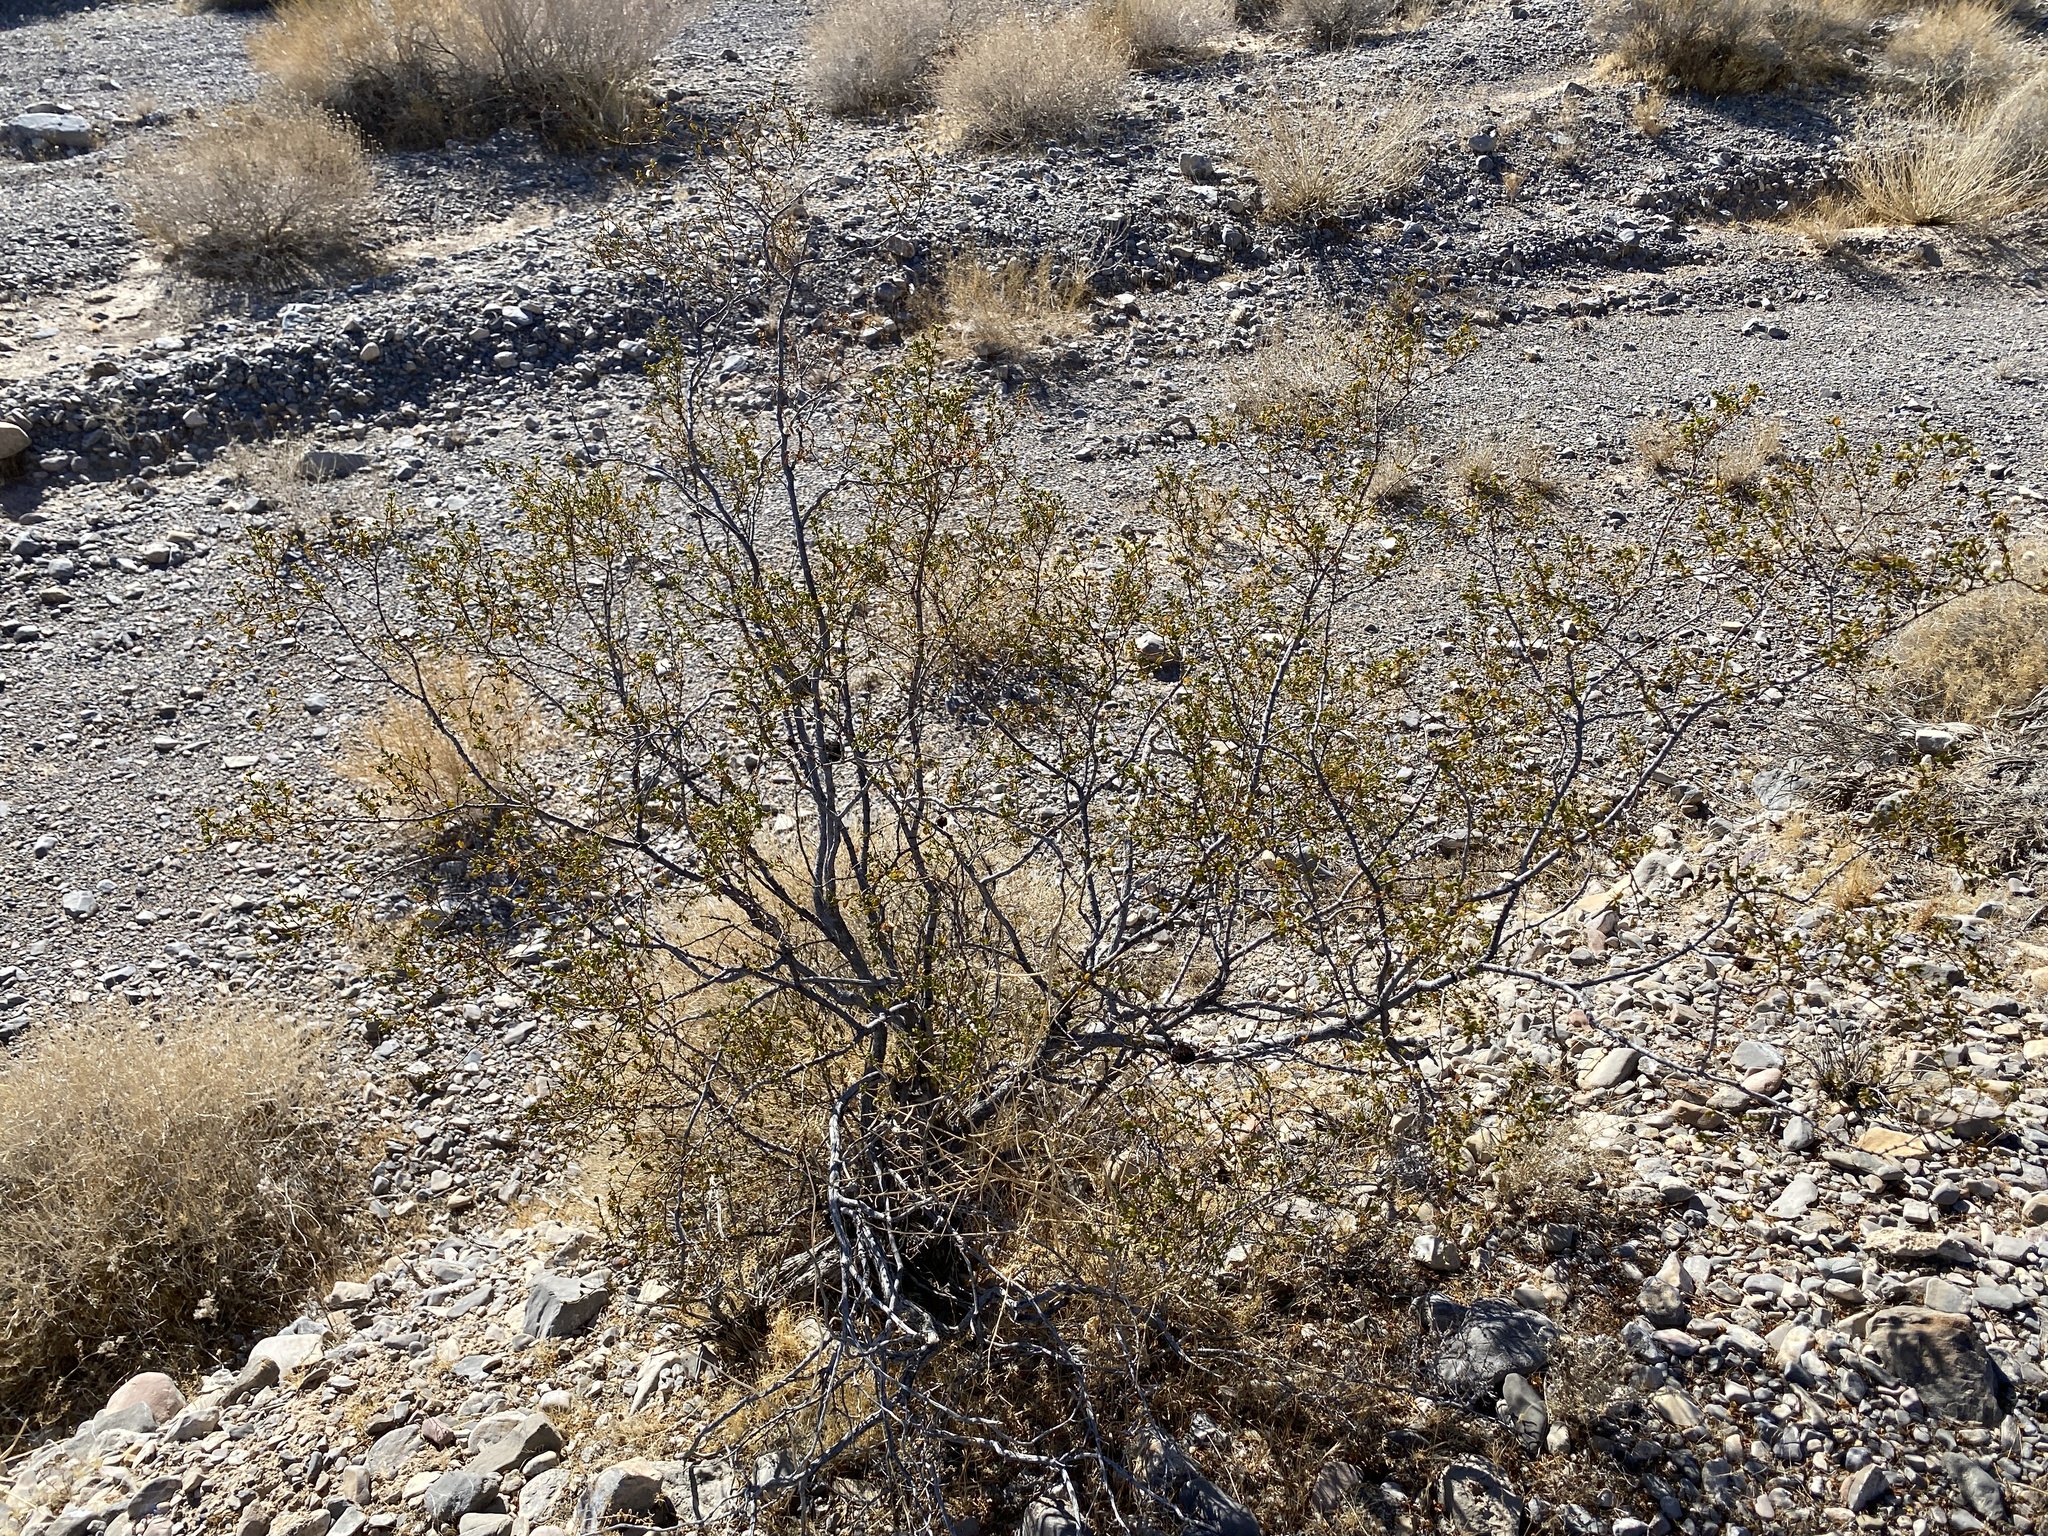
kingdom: Plantae
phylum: Tracheophyta
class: Magnoliopsida
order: Zygophyllales
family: Zygophyllaceae
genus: Larrea
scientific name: Larrea tridentata
